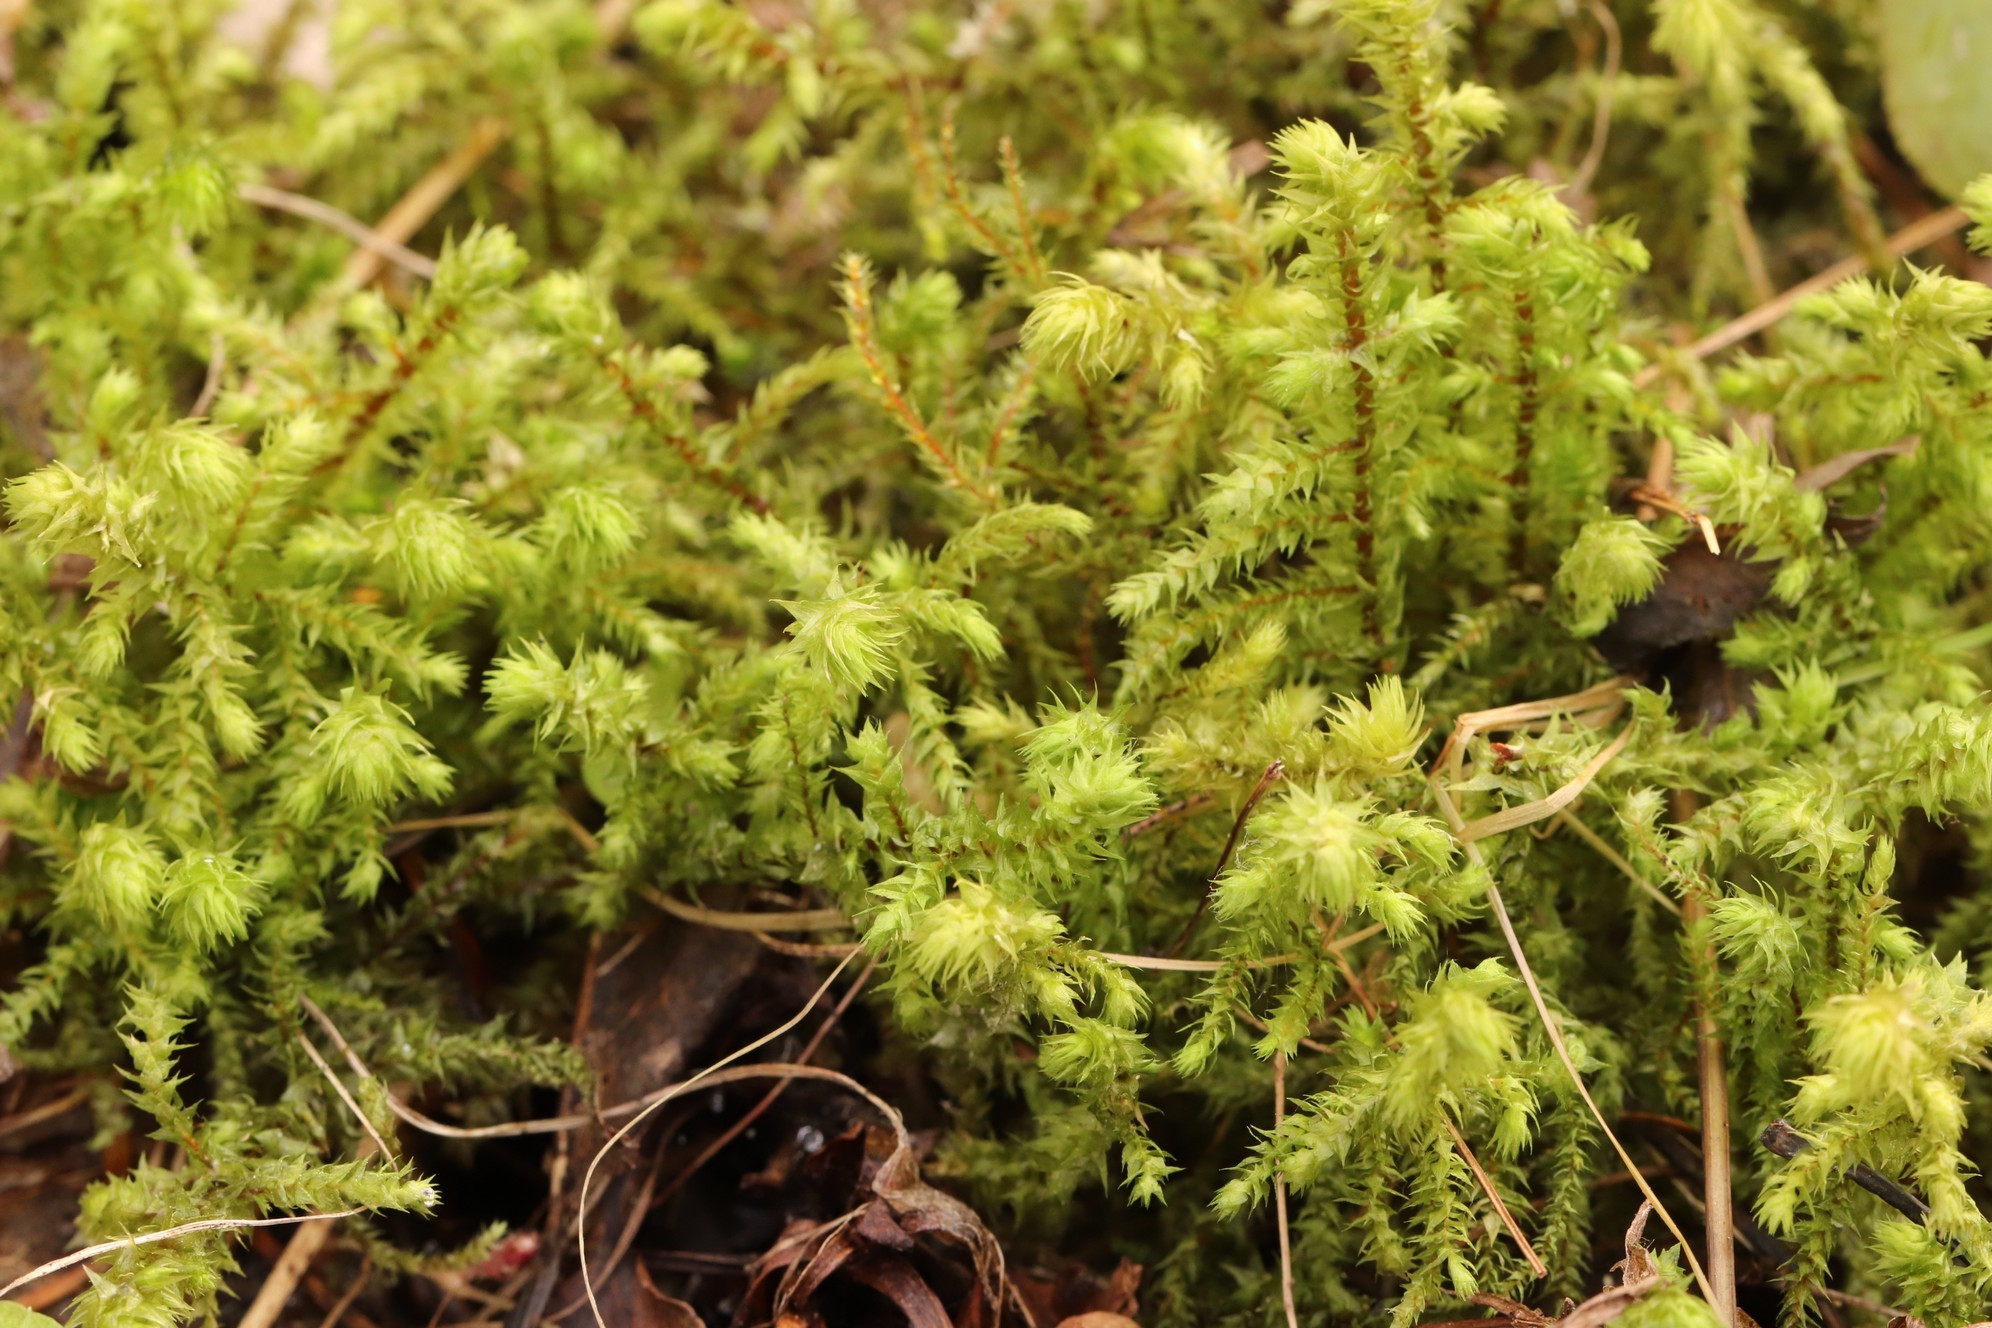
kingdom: Plantae
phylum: Bryophyta
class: Bryopsida
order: Hypnales
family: Hylocomiaceae
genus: Hylocomiadelphus
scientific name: Hylocomiadelphus triquetrus
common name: Rough goose neck moss
